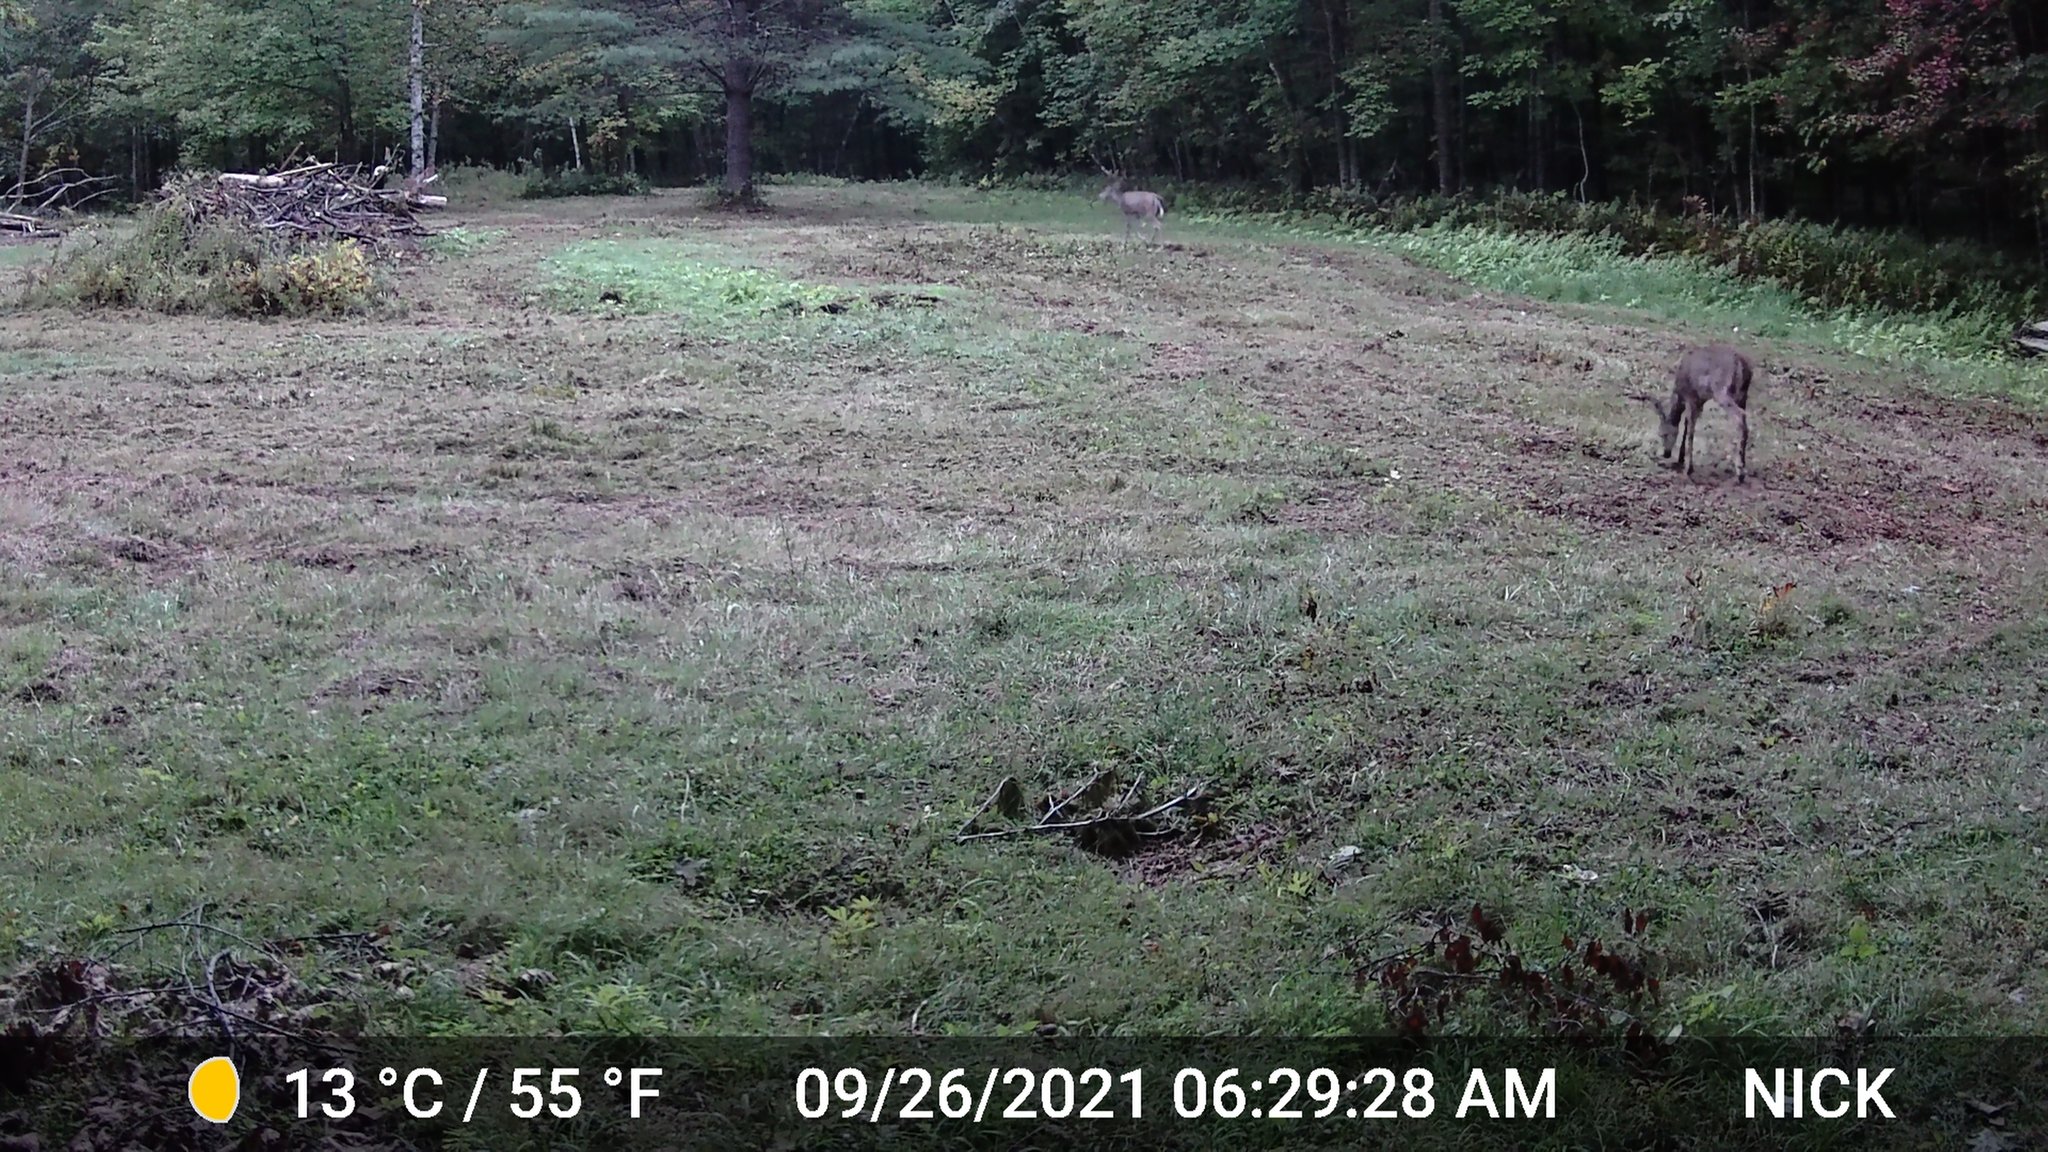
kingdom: Animalia
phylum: Chordata
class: Mammalia
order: Artiodactyla
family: Cervidae
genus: Odocoileus
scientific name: Odocoileus virginianus
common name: White-tailed deer
